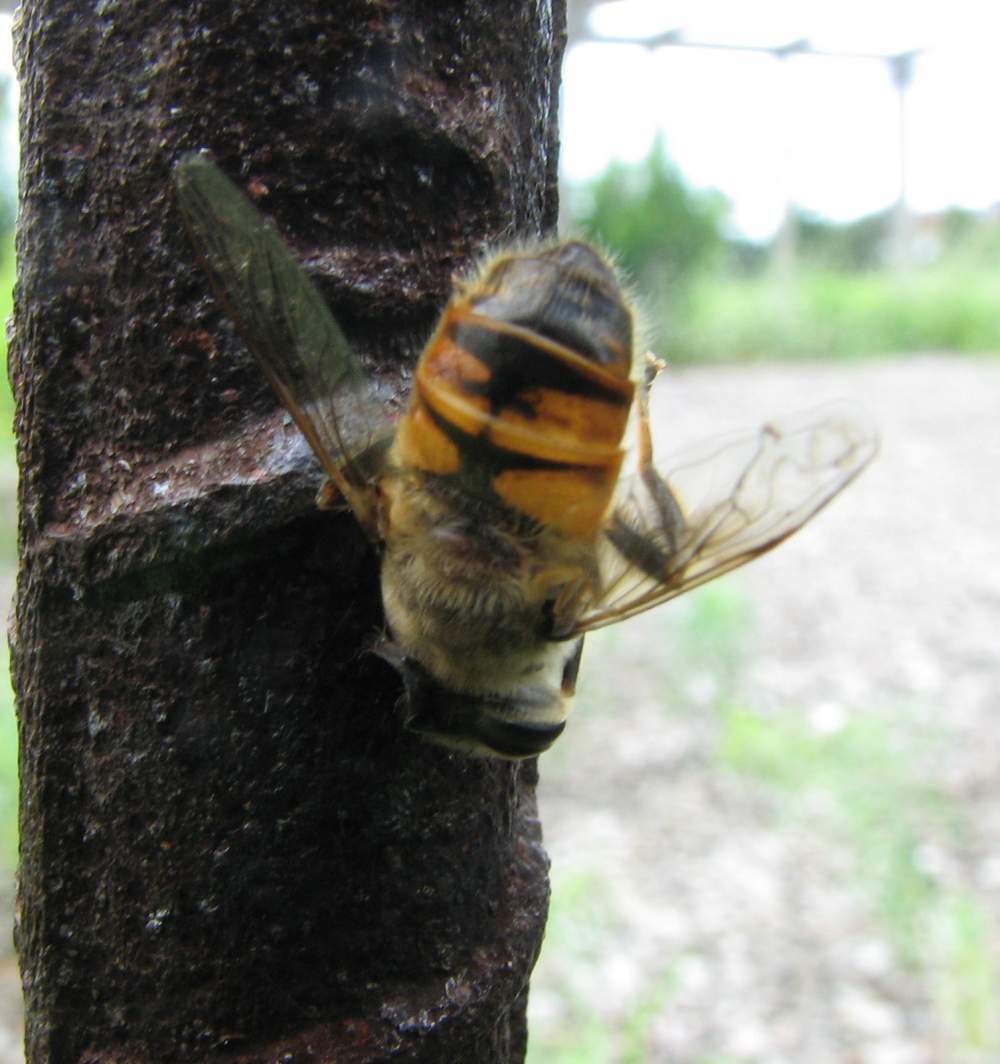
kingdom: Animalia
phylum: Arthropoda
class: Insecta
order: Diptera
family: Syrphidae
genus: Eristalis
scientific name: Eristalis tenax
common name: Drone fly
